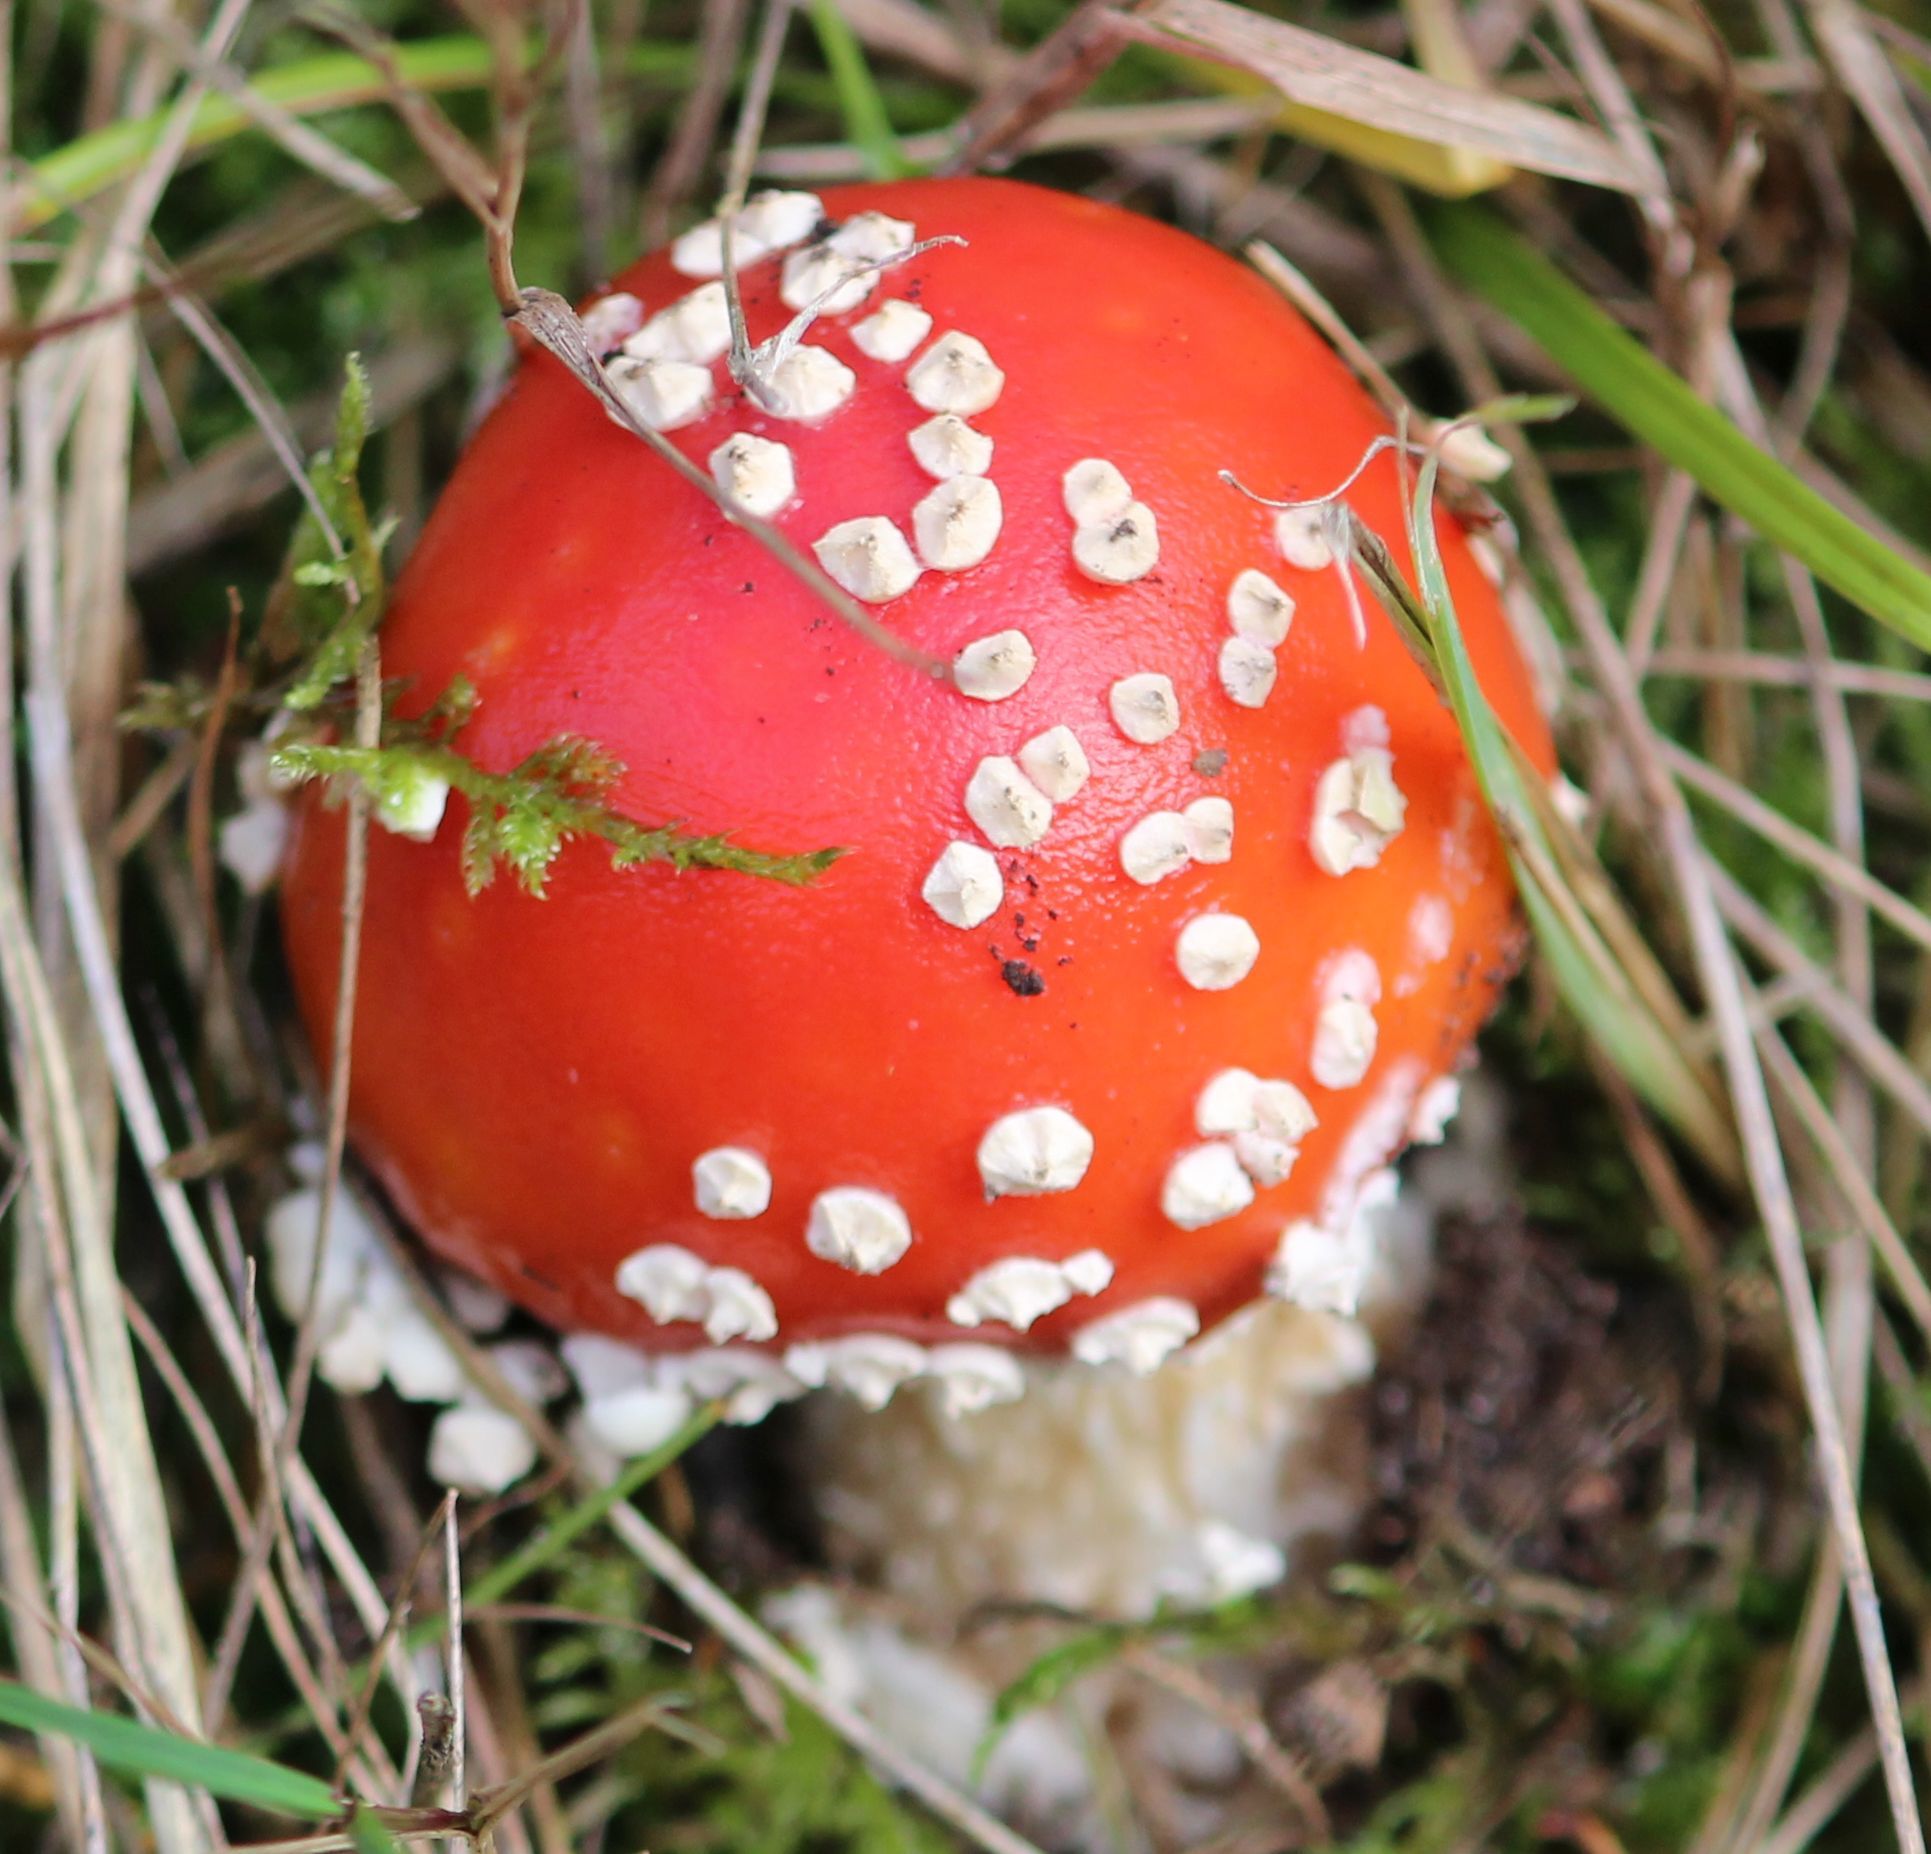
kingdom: Fungi
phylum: Basidiomycota
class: Agaricomycetes
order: Agaricales
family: Amanitaceae
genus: Amanita
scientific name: Amanita muscaria
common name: Fly agaric
